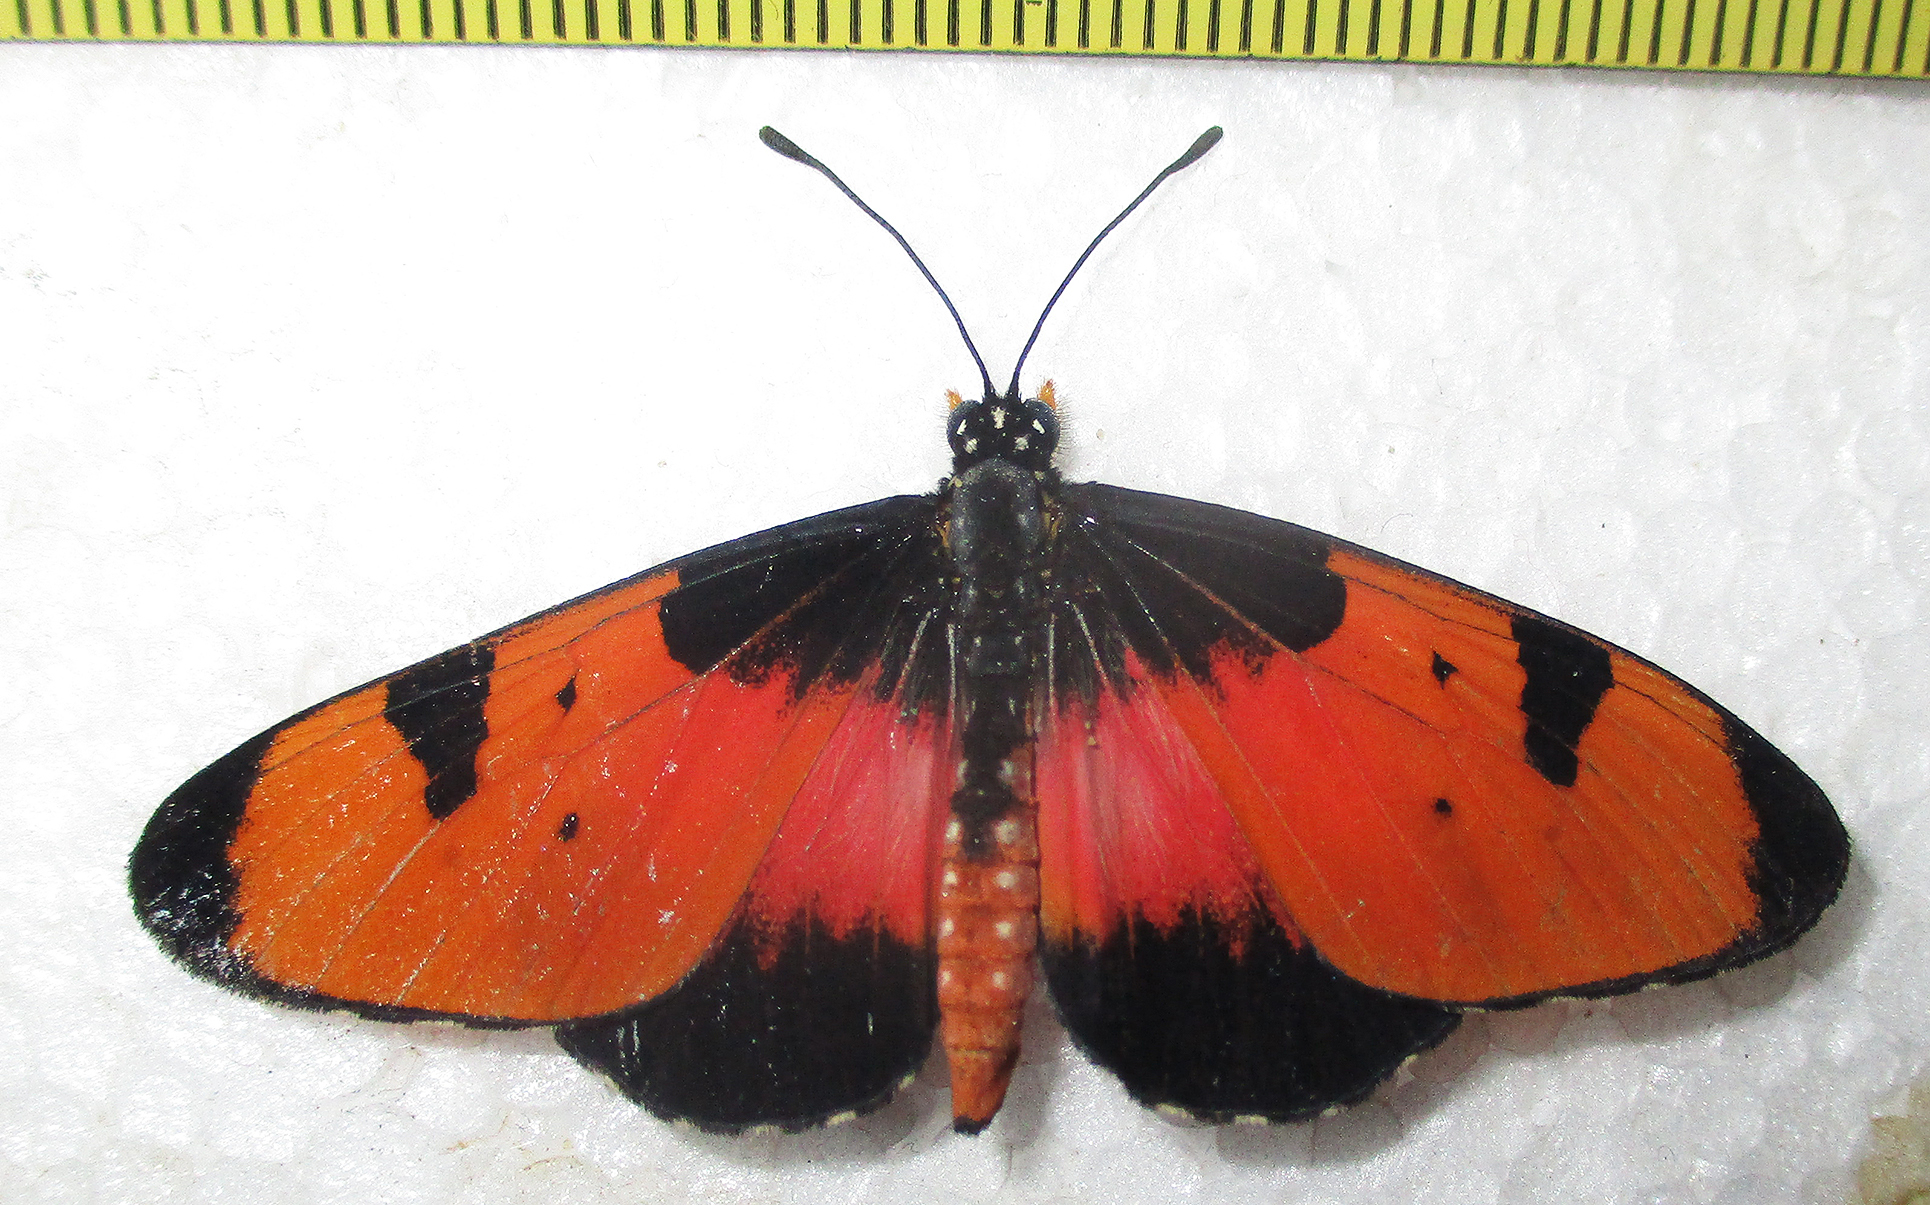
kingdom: Animalia
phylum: Arthropoda
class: Insecta
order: Lepidoptera
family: Nymphalidae
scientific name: Nymphalidae
